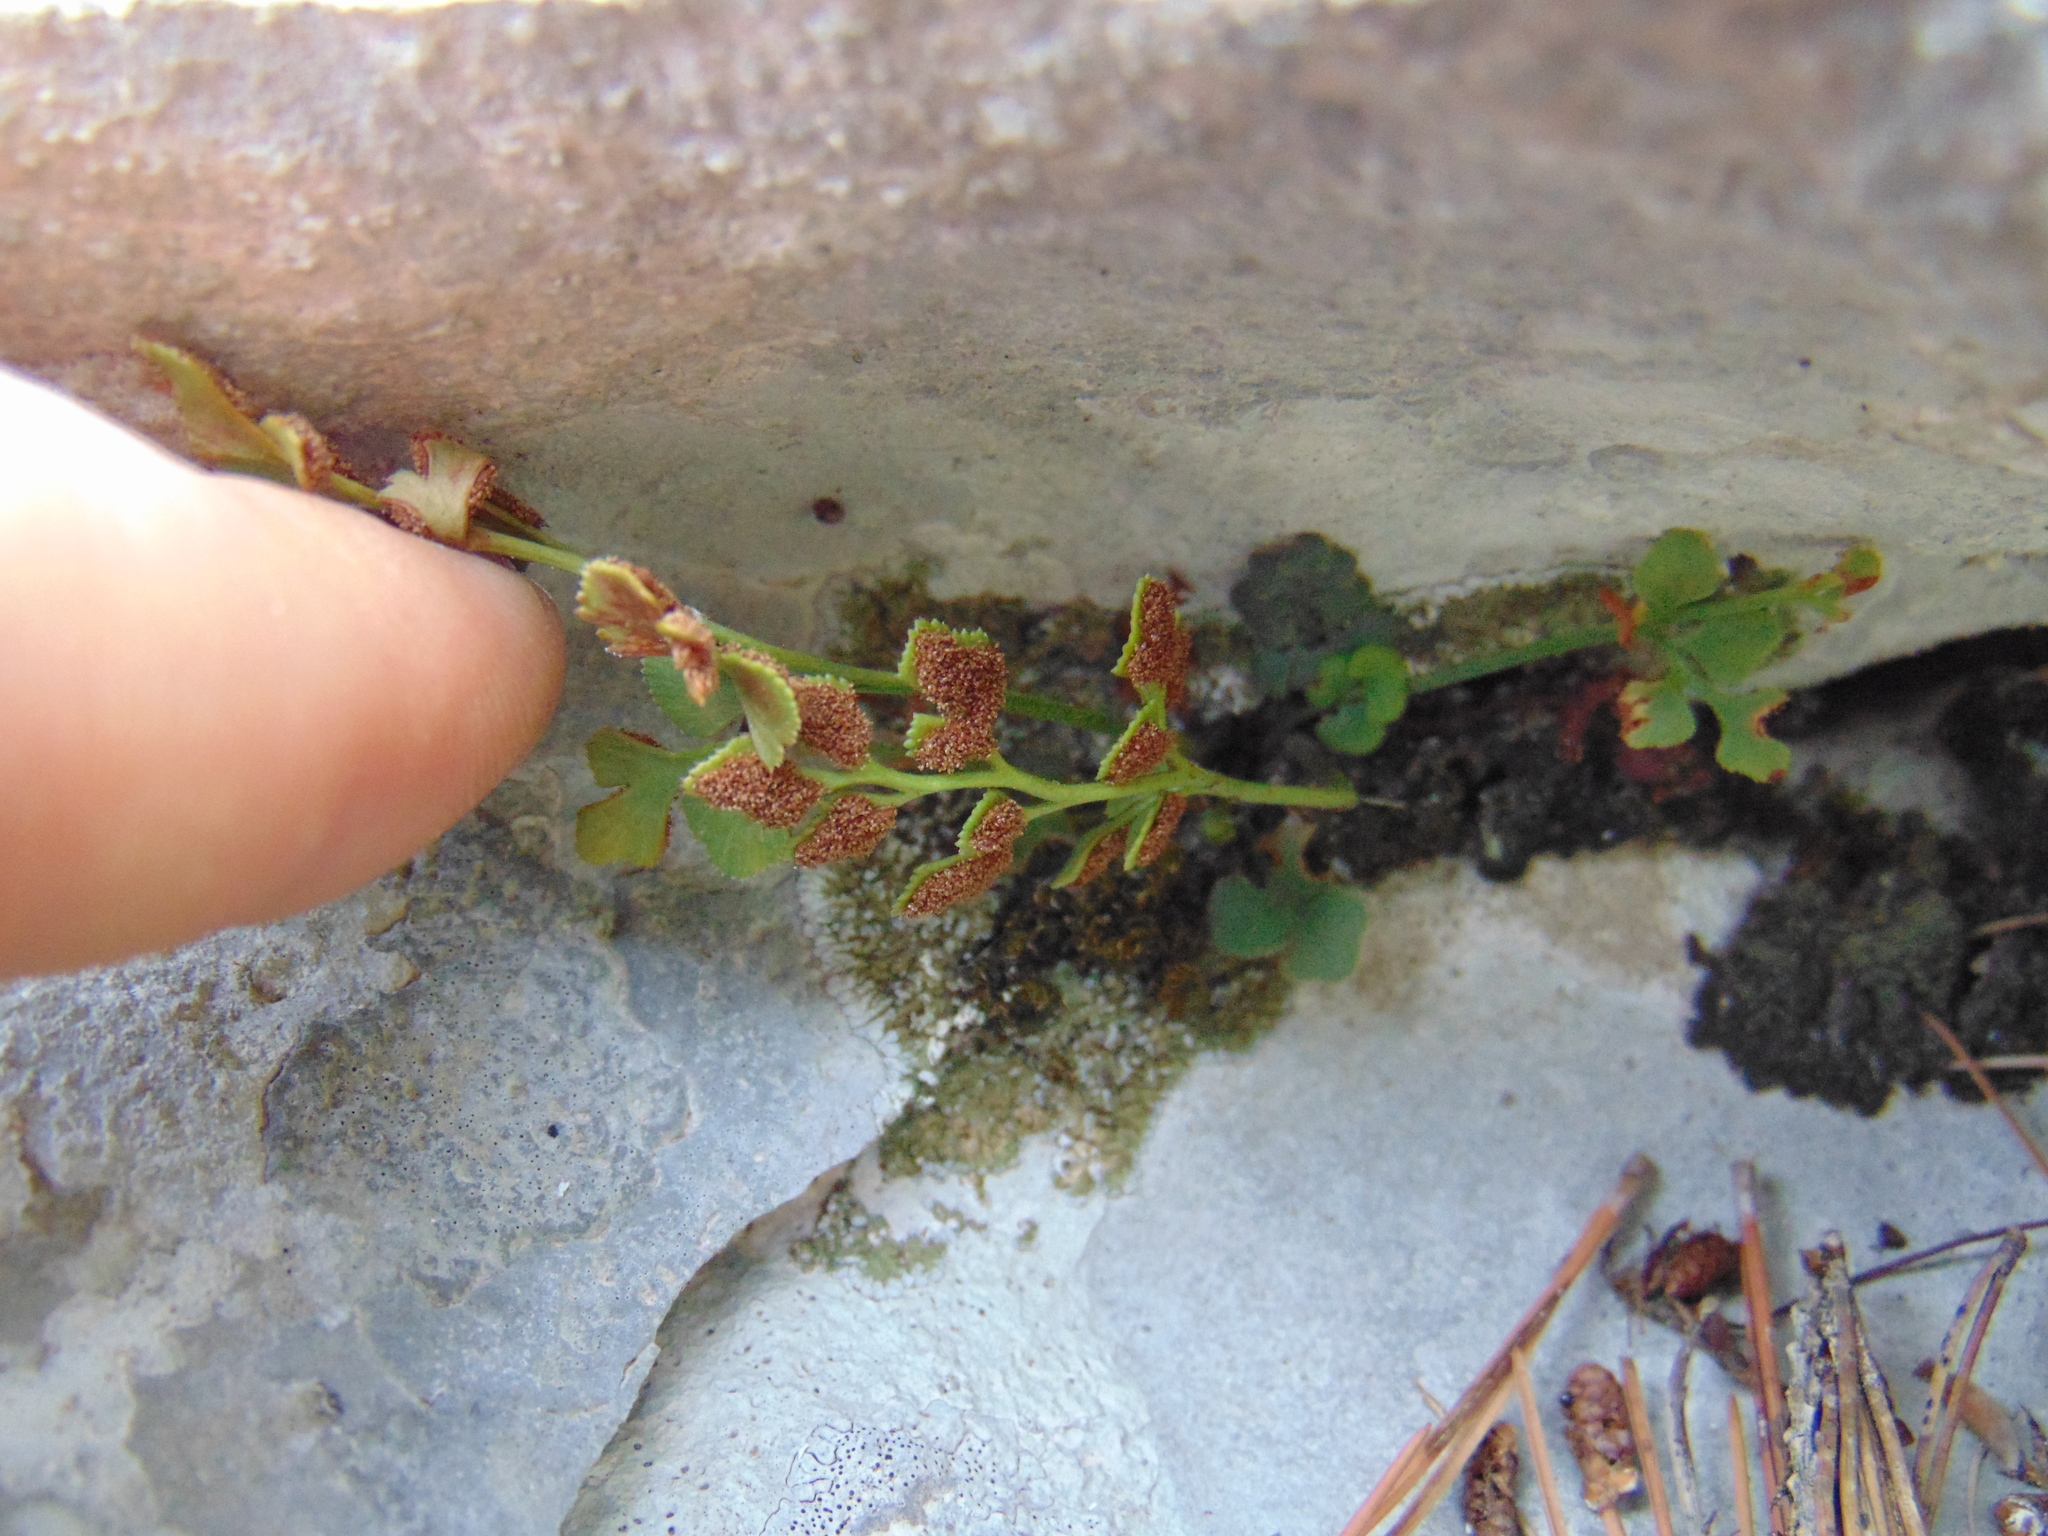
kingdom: Plantae
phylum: Tracheophyta
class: Polypodiopsida
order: Polypodiales
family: Aspleniaceae
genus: Asplenium
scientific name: Asplenium ruta-muraria
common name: Wall-rue
